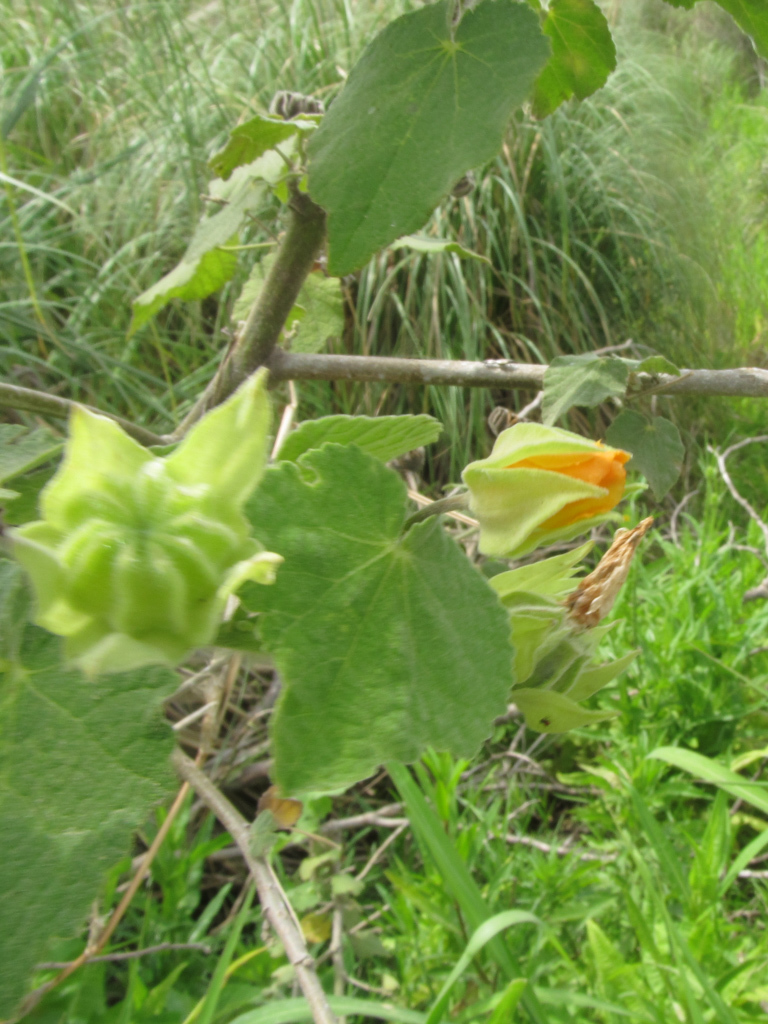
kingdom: Plantae
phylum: Tracheophyta
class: Magnoliopsida
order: Malvales
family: Malvaceae
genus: Abutilon
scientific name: Abutilon grandifolium
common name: Hairy abutilon
